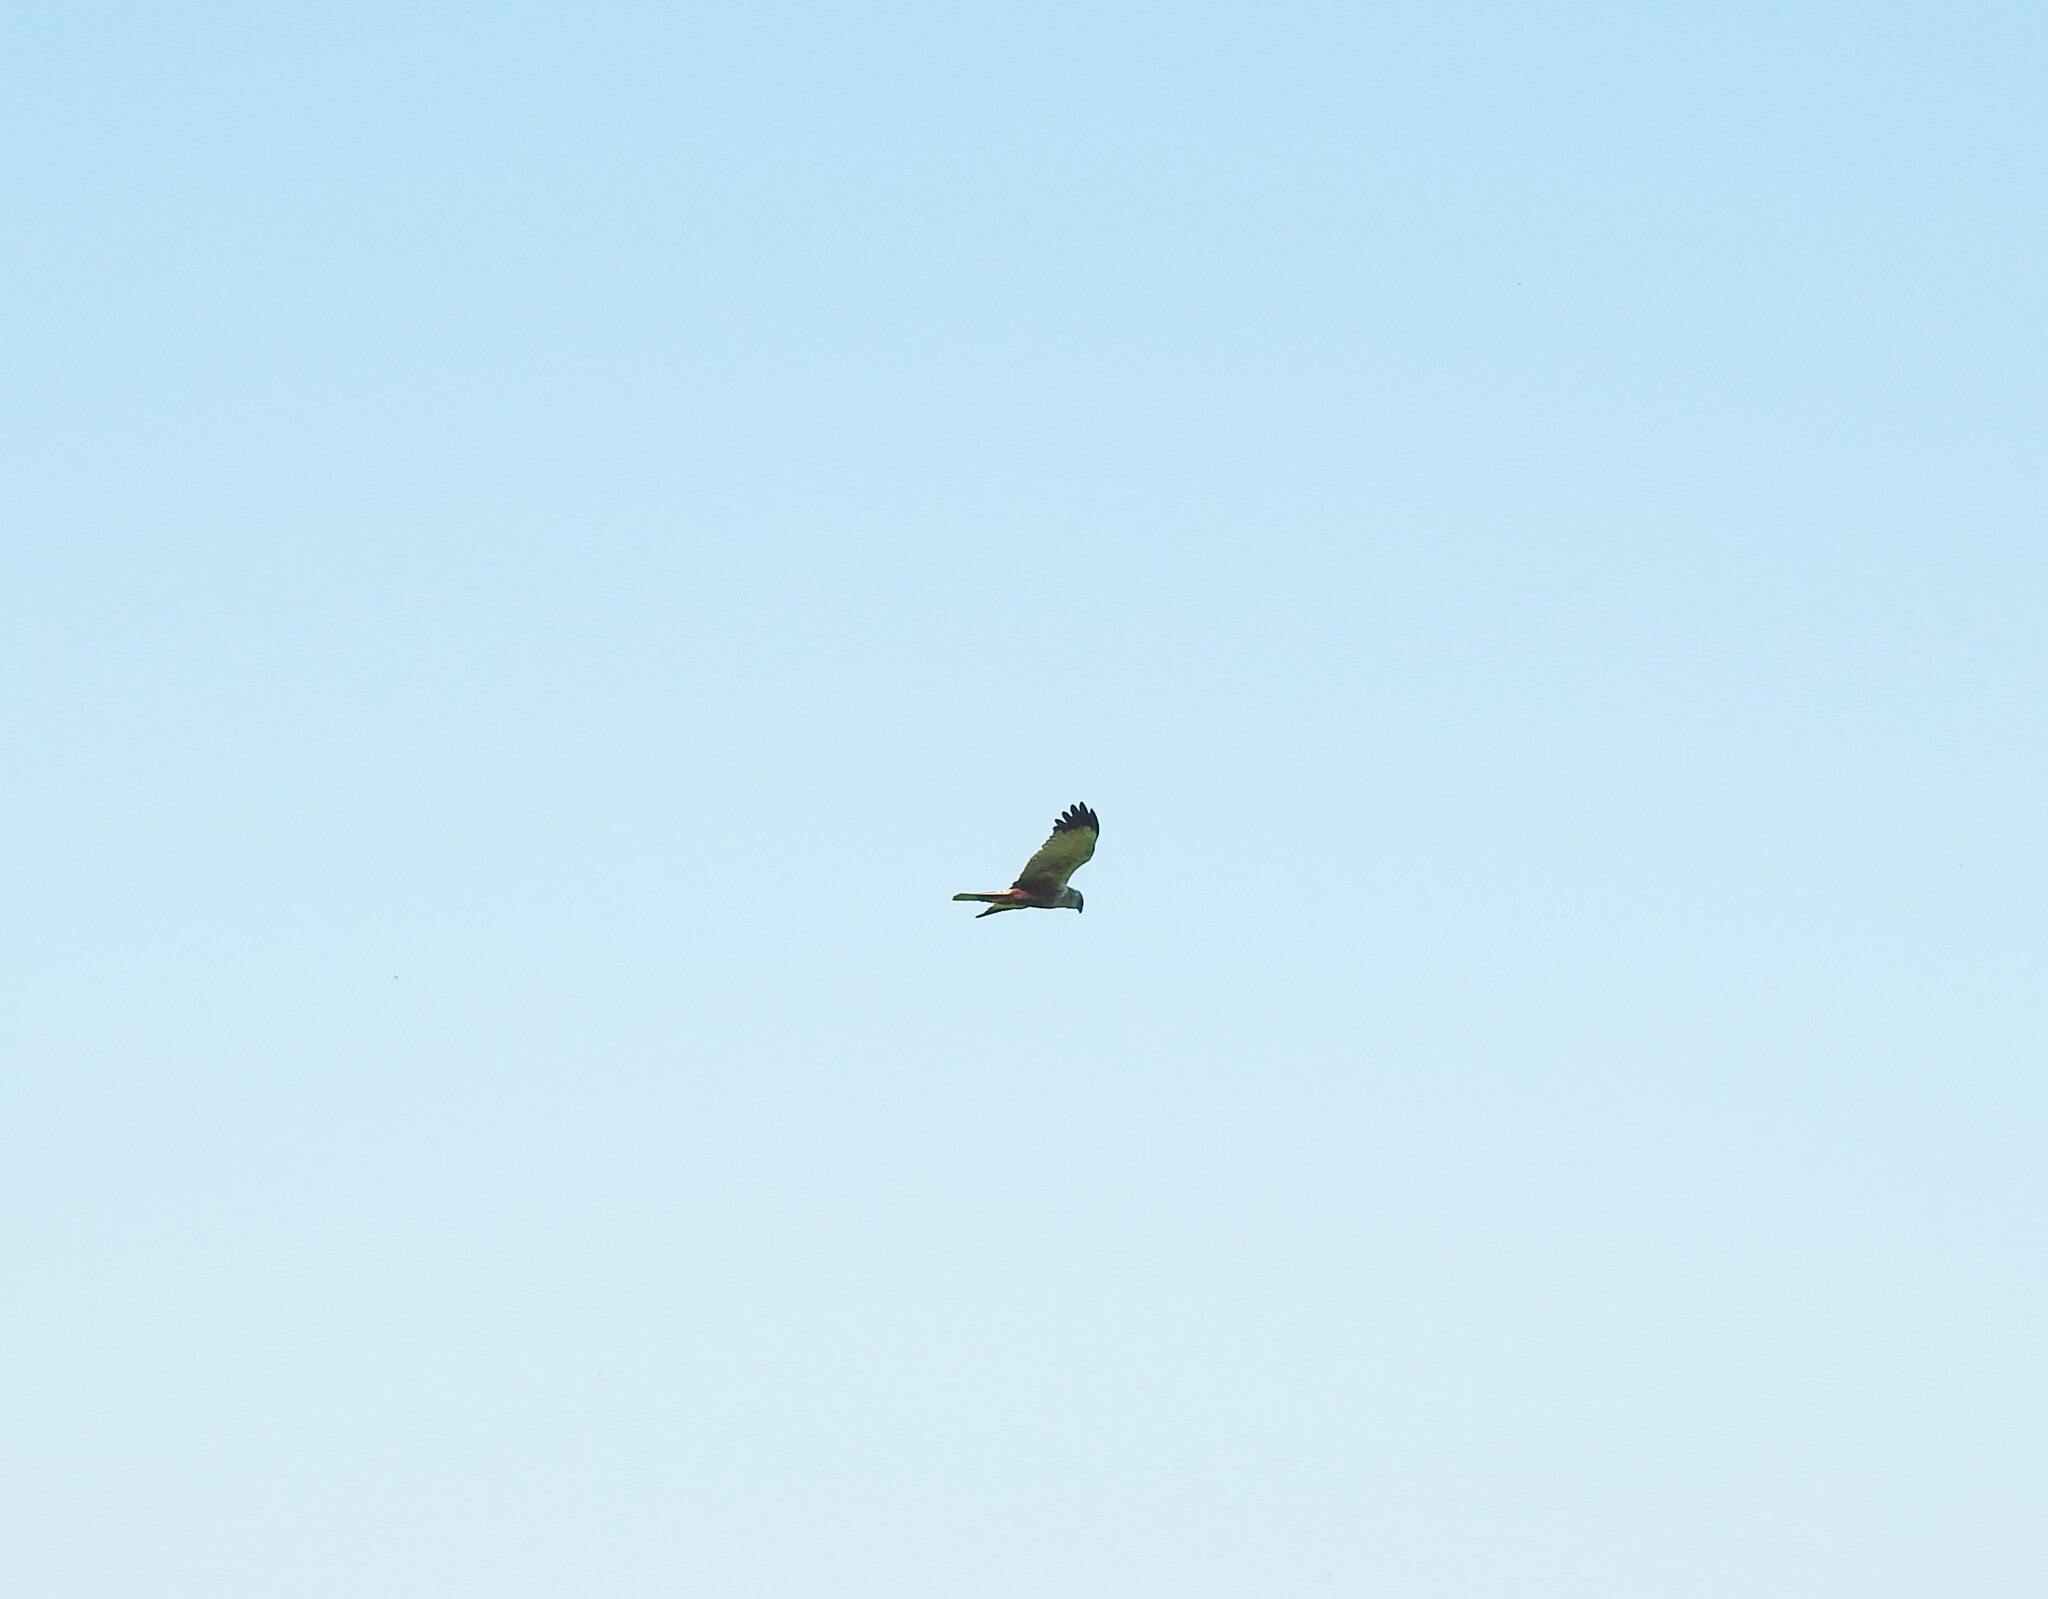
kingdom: Animalia
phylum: Chordata
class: Aves
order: Accipitriformes
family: Accipitridae
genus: Circus
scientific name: Circus aeruginosus
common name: Western marsh harrier
